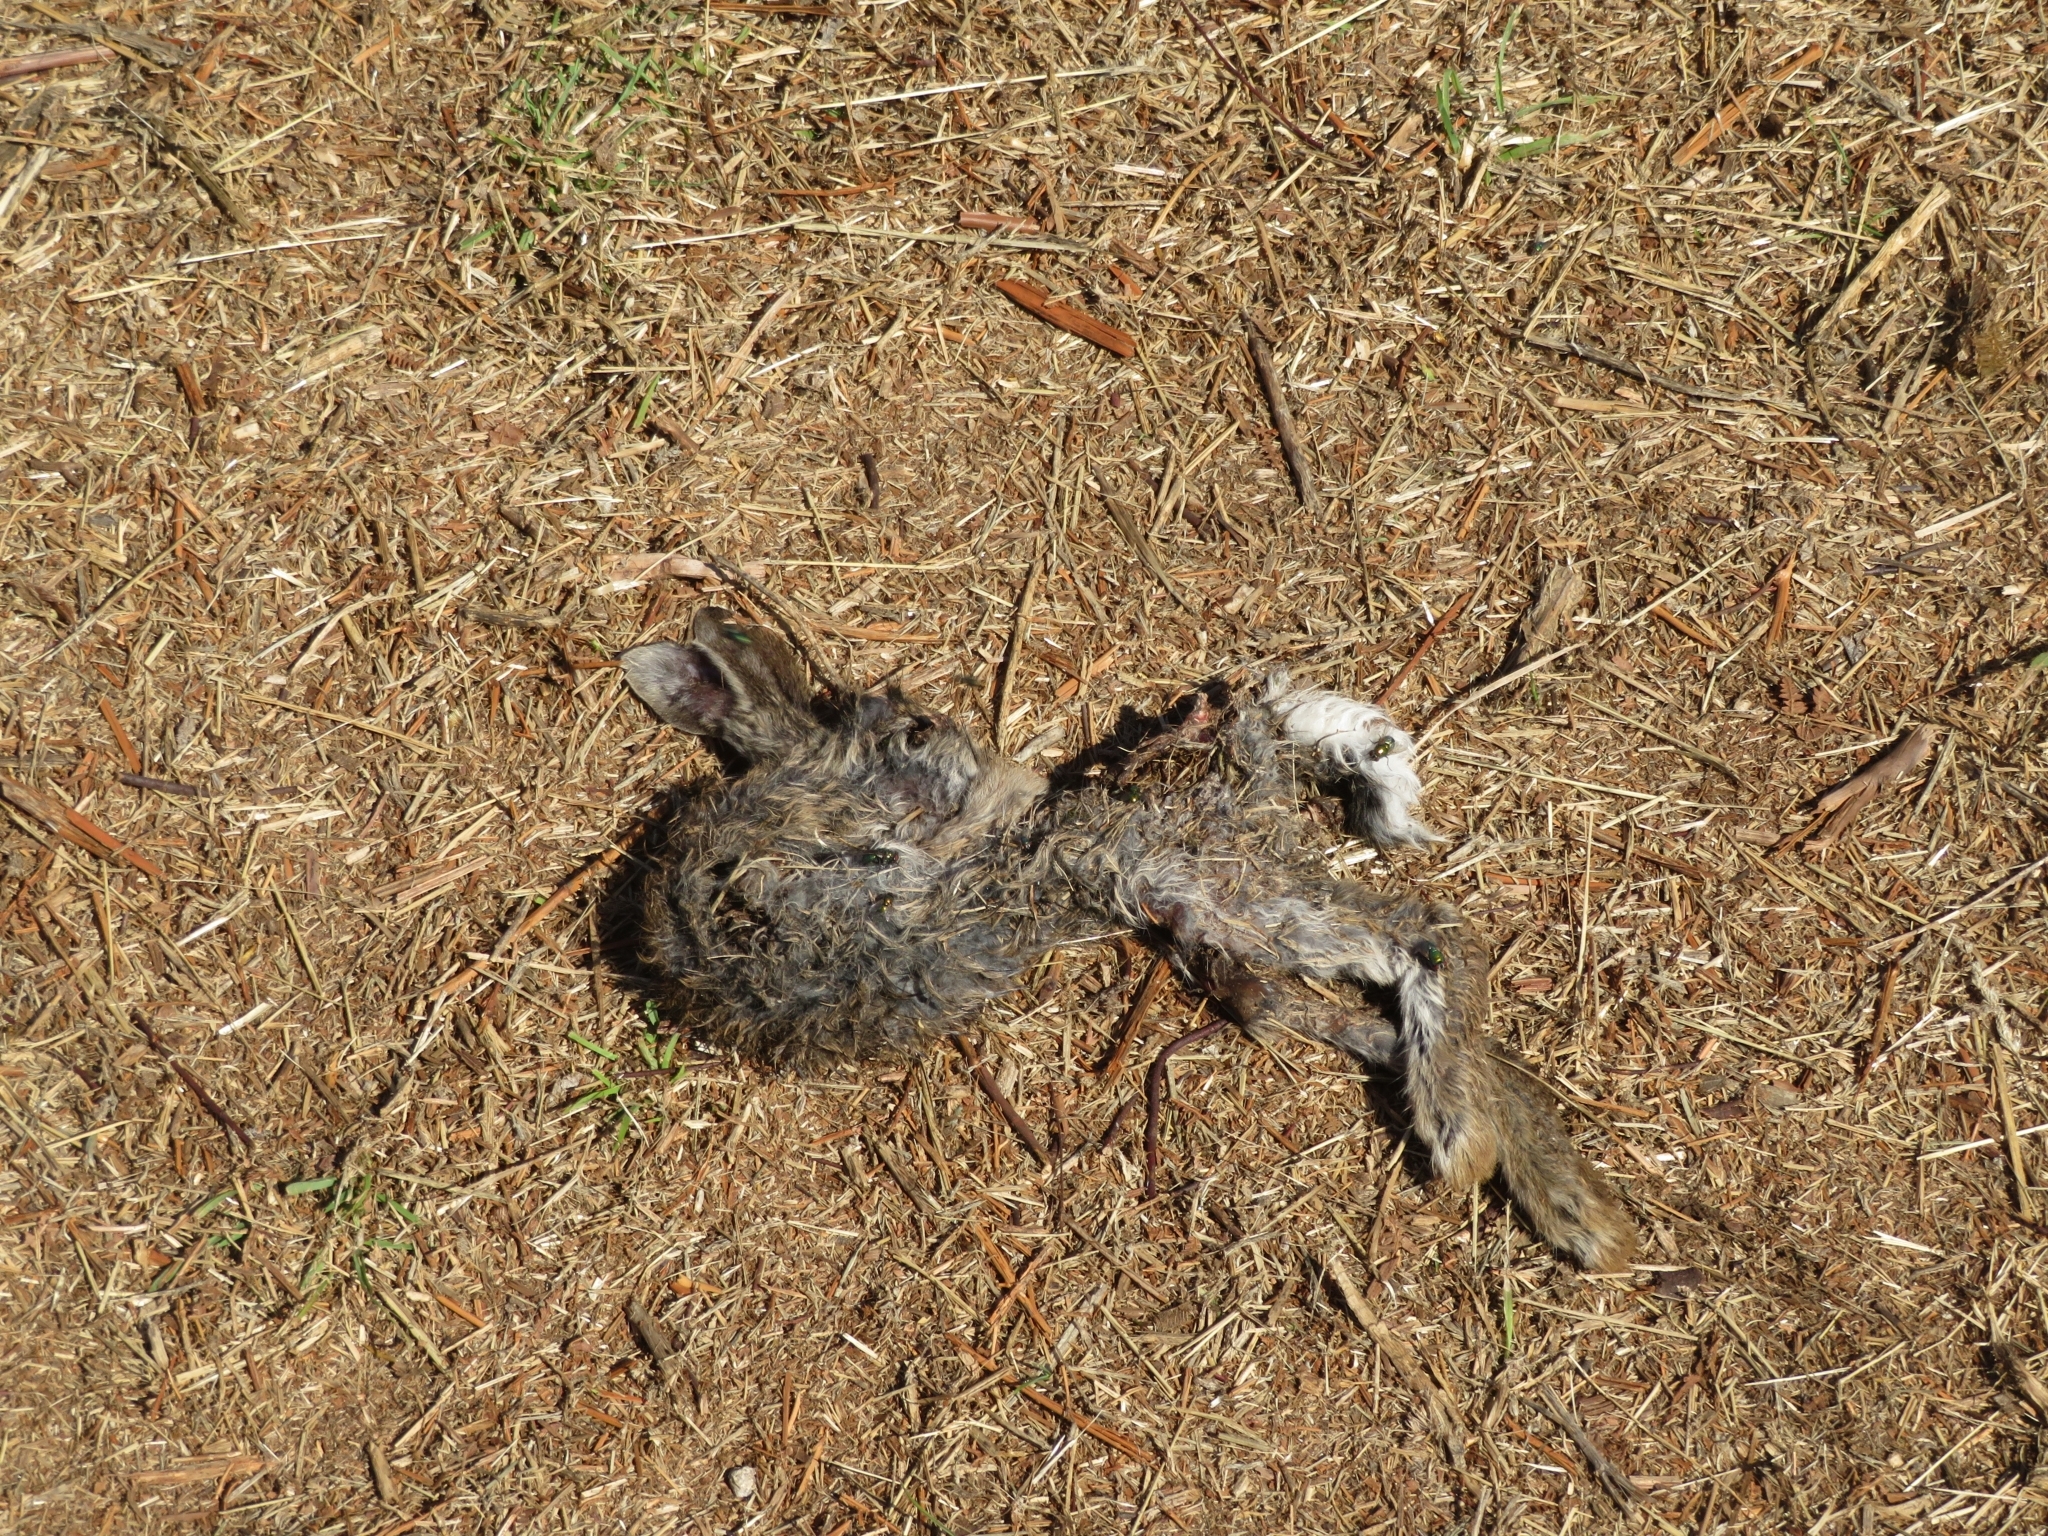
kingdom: Animalia
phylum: Chordata
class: Mammalia
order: Lagomorpha
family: Leporidae
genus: Oryctolagus
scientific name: Oryctolagus cuniculus
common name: European rabbit
